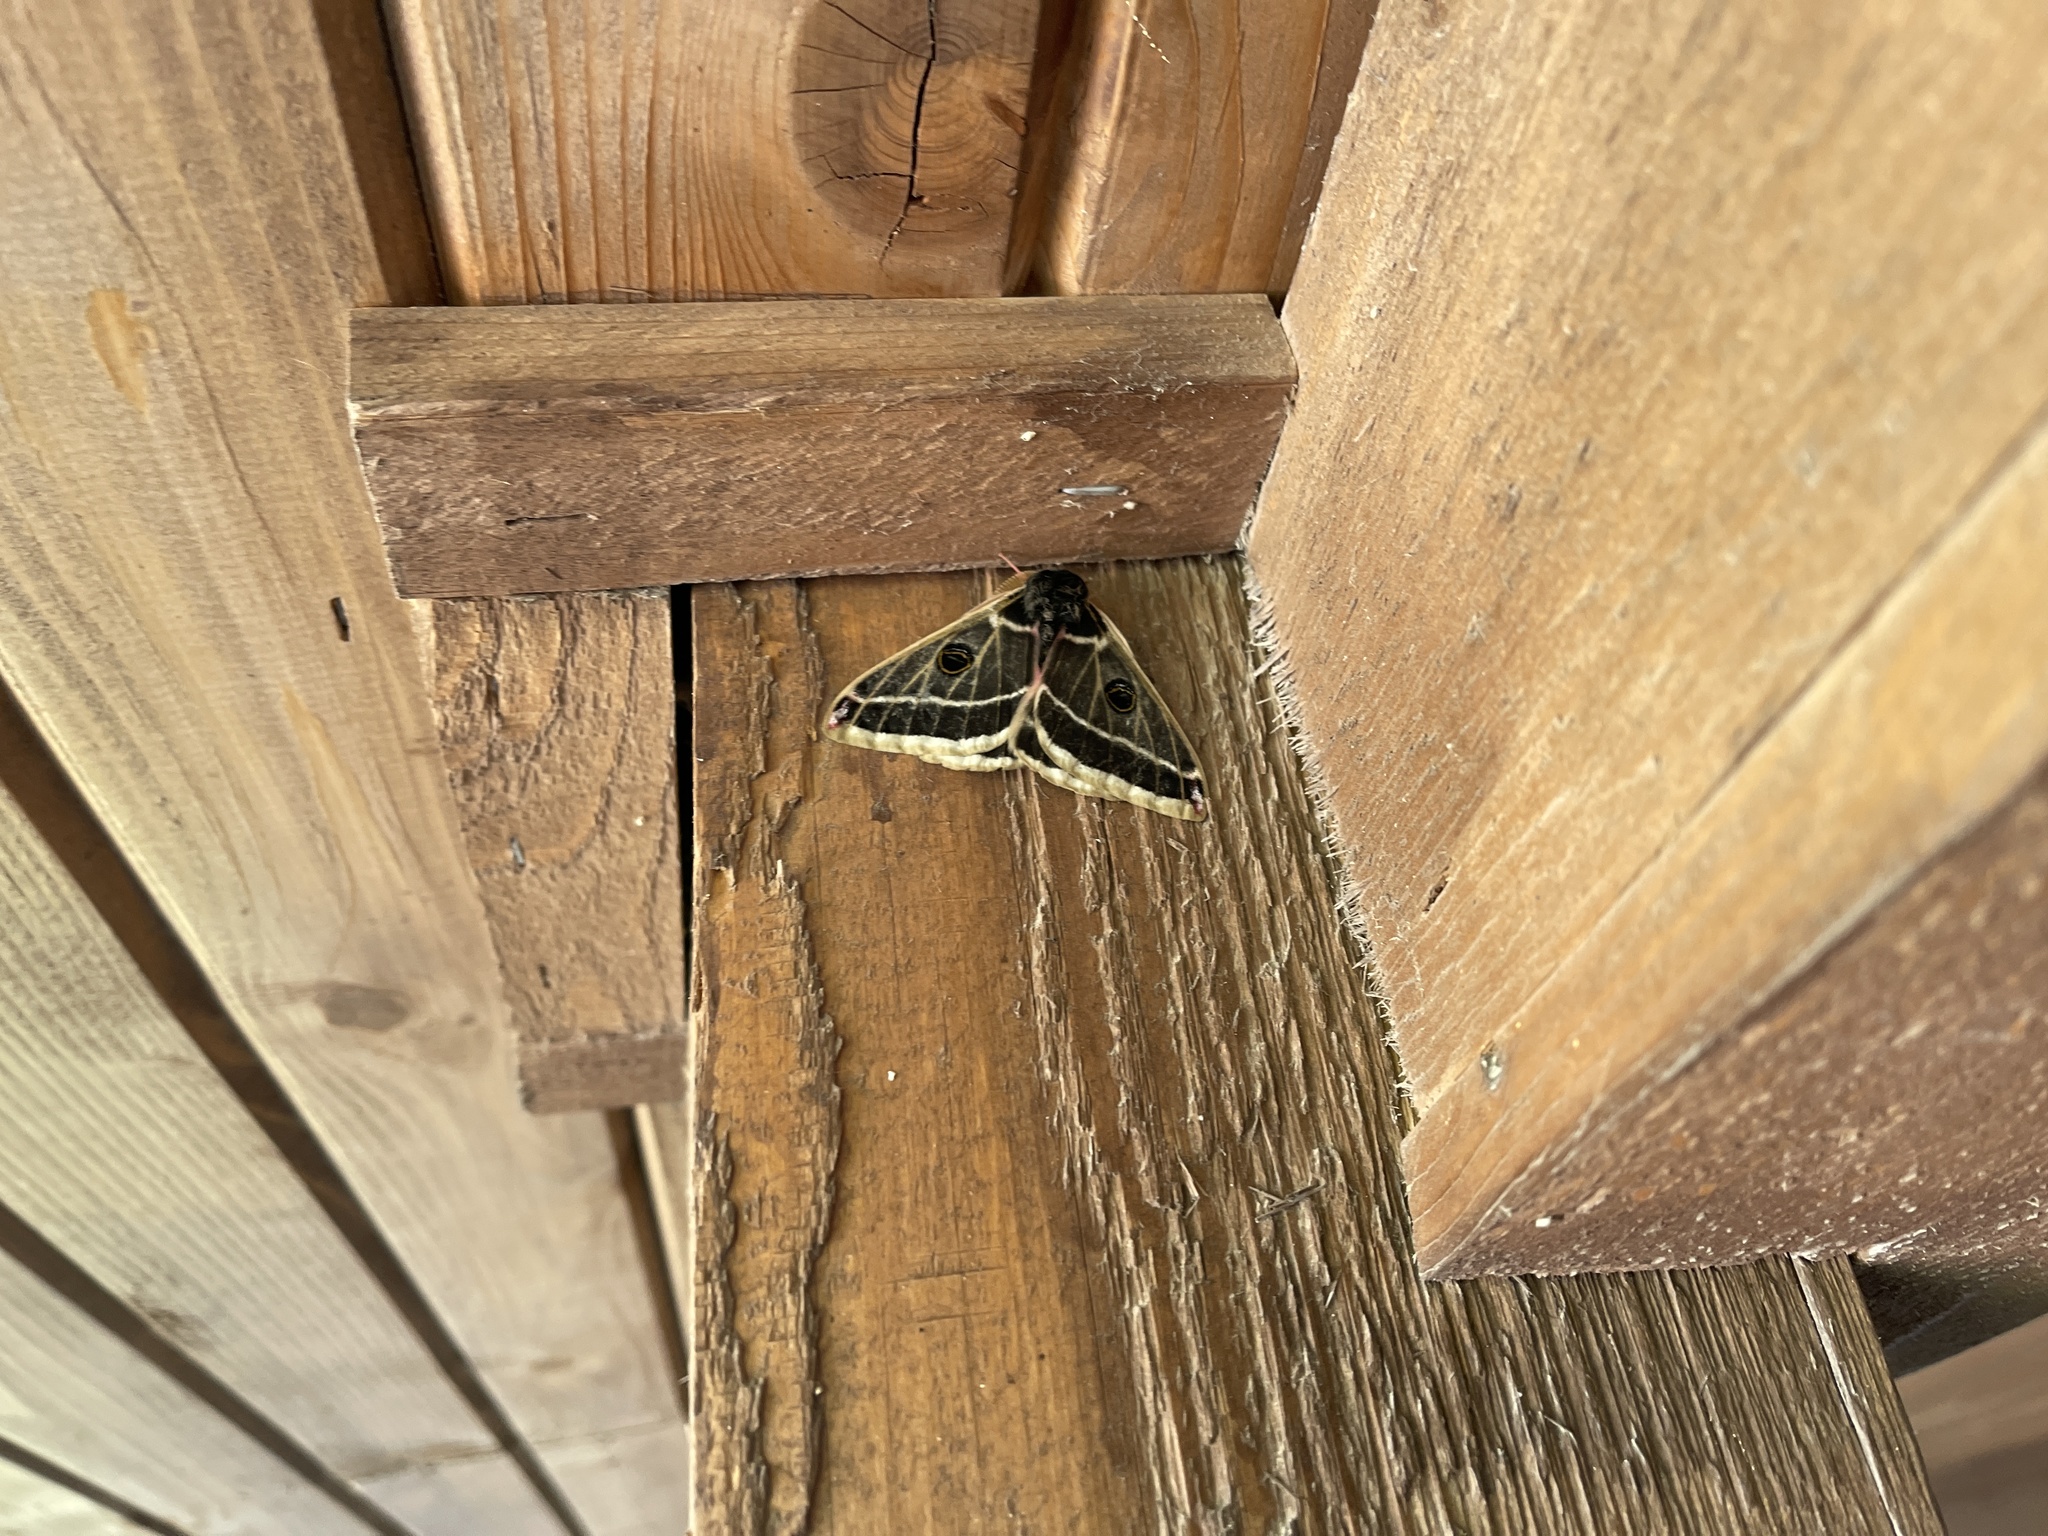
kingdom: Animalia
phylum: Arthropoda
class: Insecta
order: Lepidoptera
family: Saturniidae
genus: Agapema
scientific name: Agapema homogena
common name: Rocky mountain agapema
